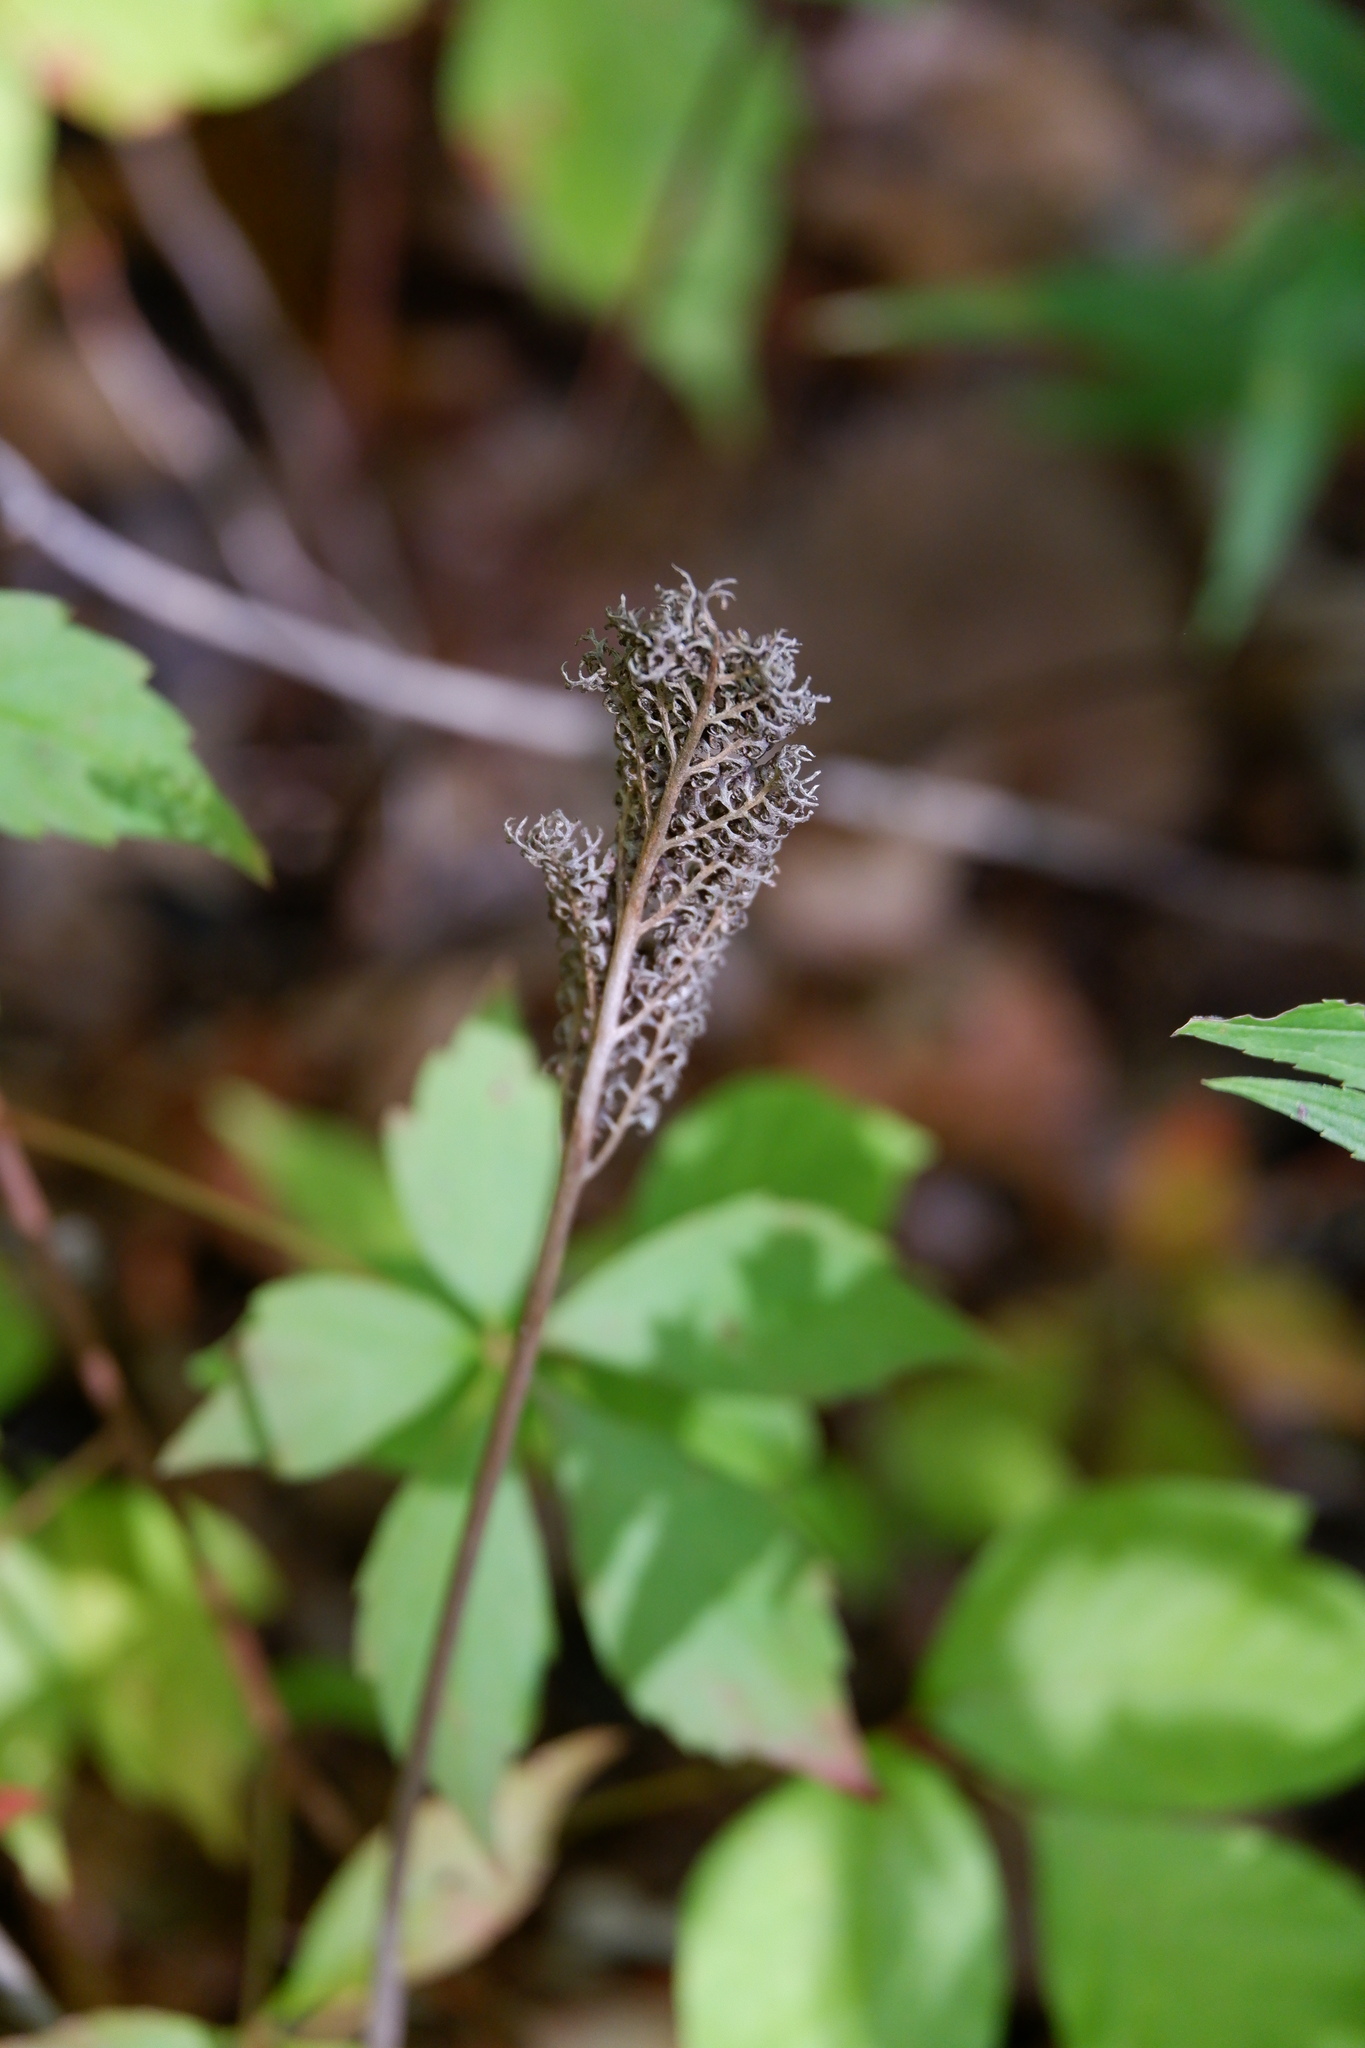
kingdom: Plantae
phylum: Tracheophyta
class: Polypodiopsida
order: Polypodiales
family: Onocleaceae
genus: Onoclea
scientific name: Onoclea sensibilis
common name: Sensitive fern
